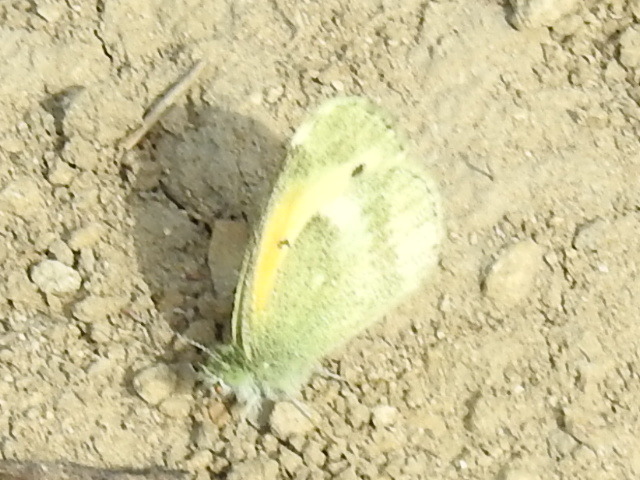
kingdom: Animalia
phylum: Arthropoda
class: Insecta
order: Lepidoptera
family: Pieridae
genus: Nathalis
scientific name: Nathalis iole
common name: Dainty sulphur
